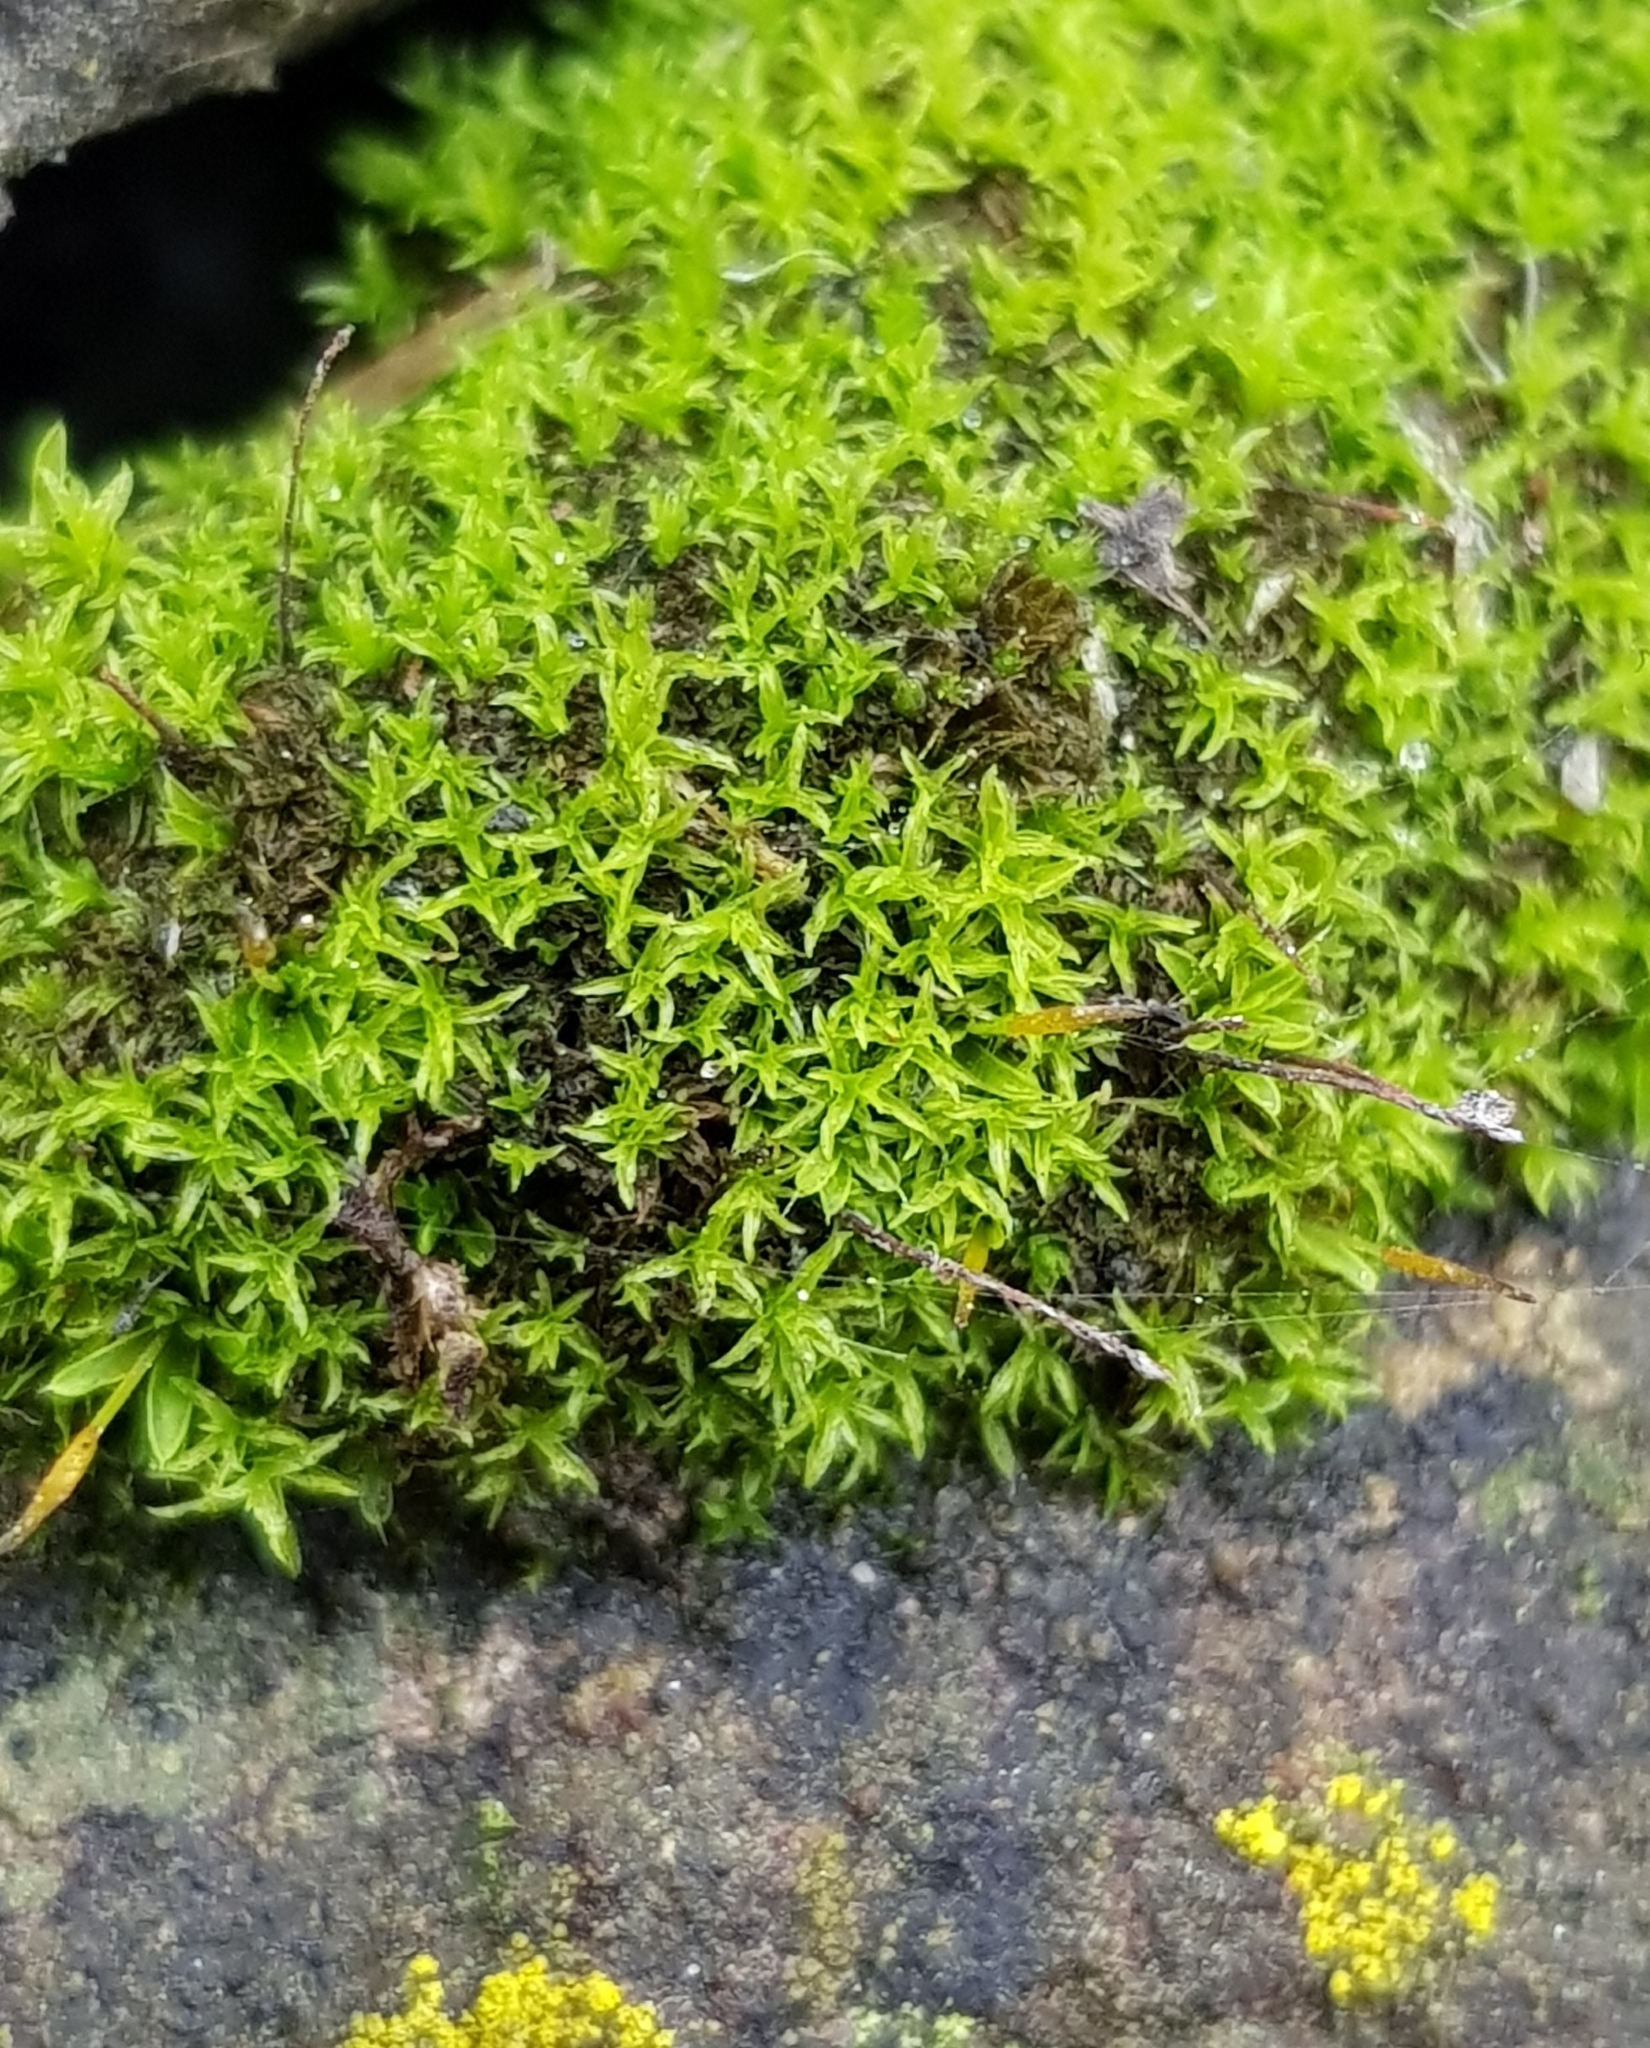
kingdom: Plantae
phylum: Bryophyta
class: Bryopsida
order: Pottiales
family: Pottiaceae
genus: Streblotrichum
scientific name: Streblotrichum convolutum
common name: Lesser bird's-claw beard-moss
